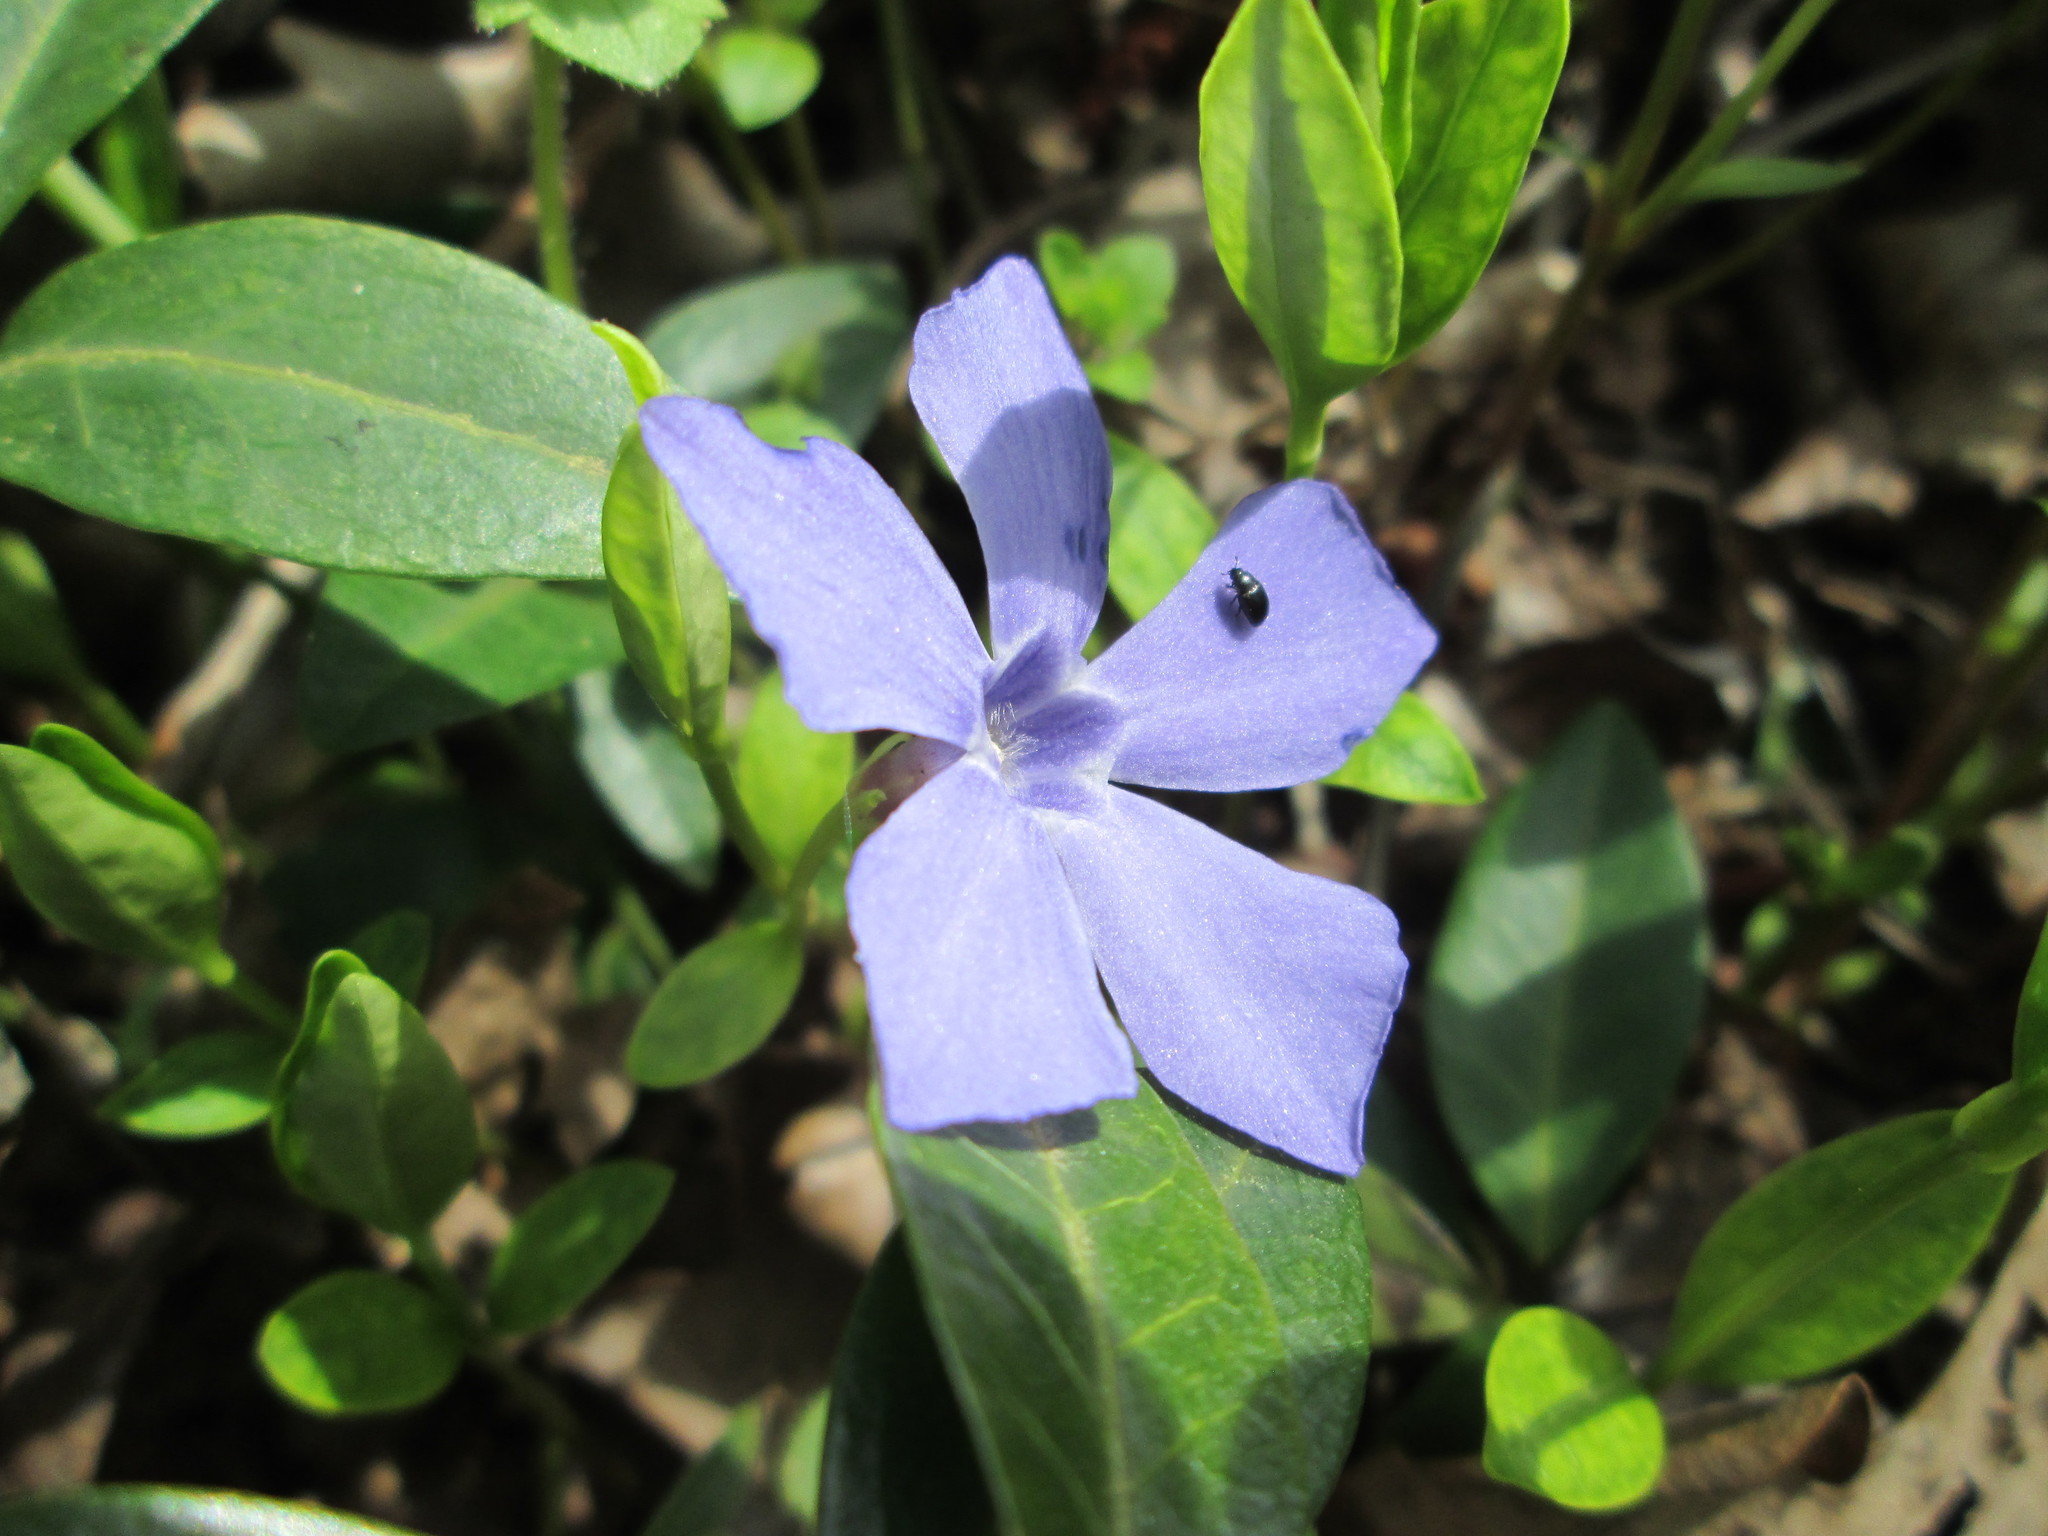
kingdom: Plantae
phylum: Tracheophyta
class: Magnoliopsida
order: Gentianales
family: Apocynaceae
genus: Vinca
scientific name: Vinca minor
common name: Lesser periwinkle
